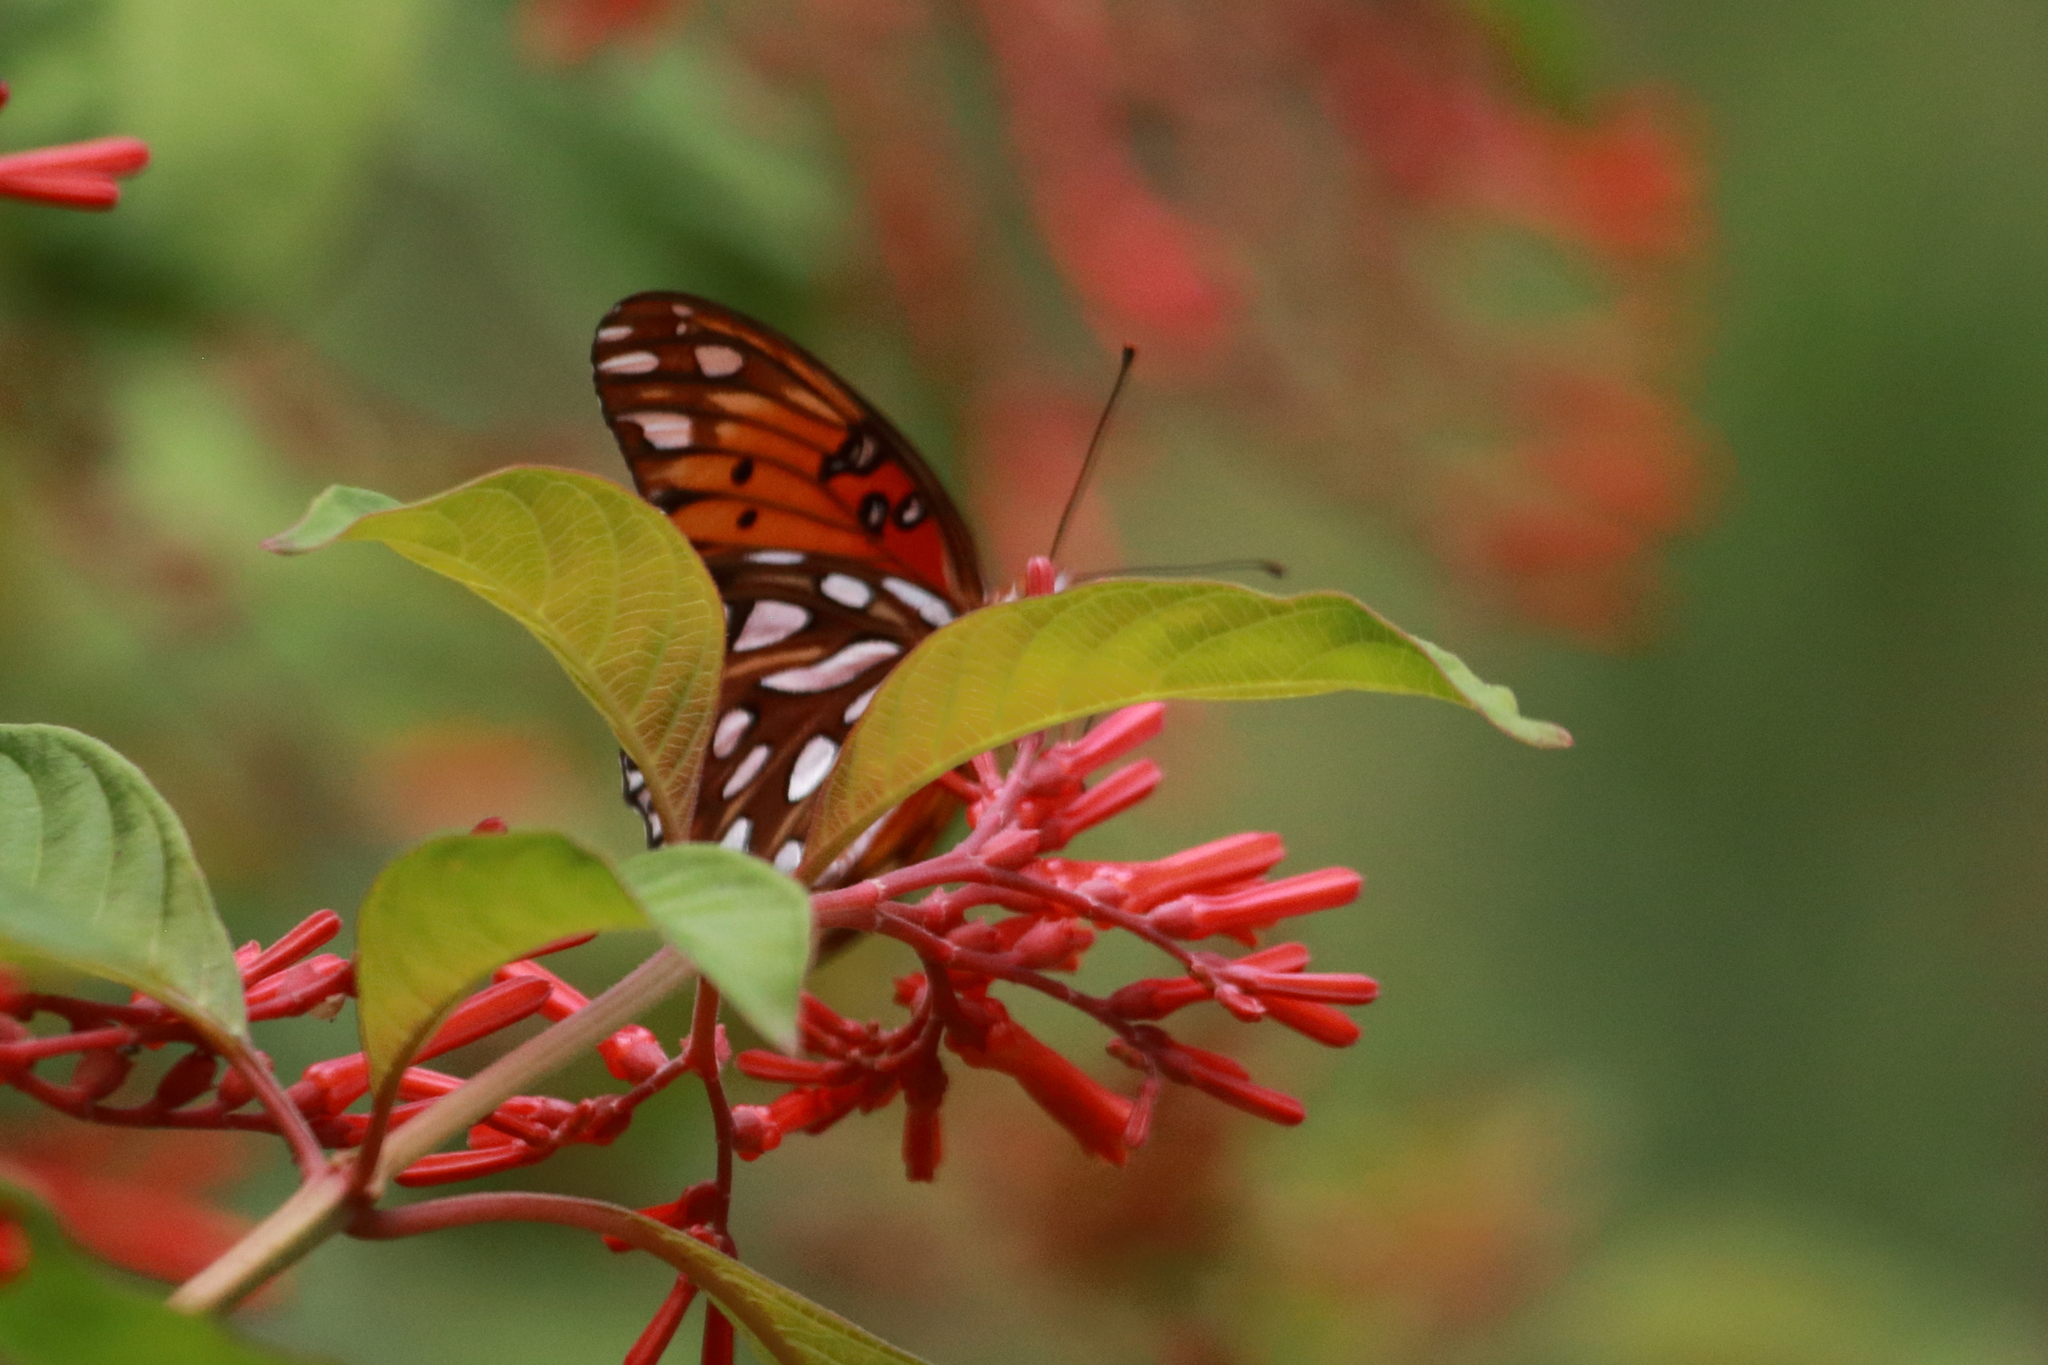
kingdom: Animalia
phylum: Arthropoda
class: Insecta
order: Lepidoptera
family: Nymphalidae
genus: Dione
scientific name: Dione vanillae
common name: Gulf fritillary
